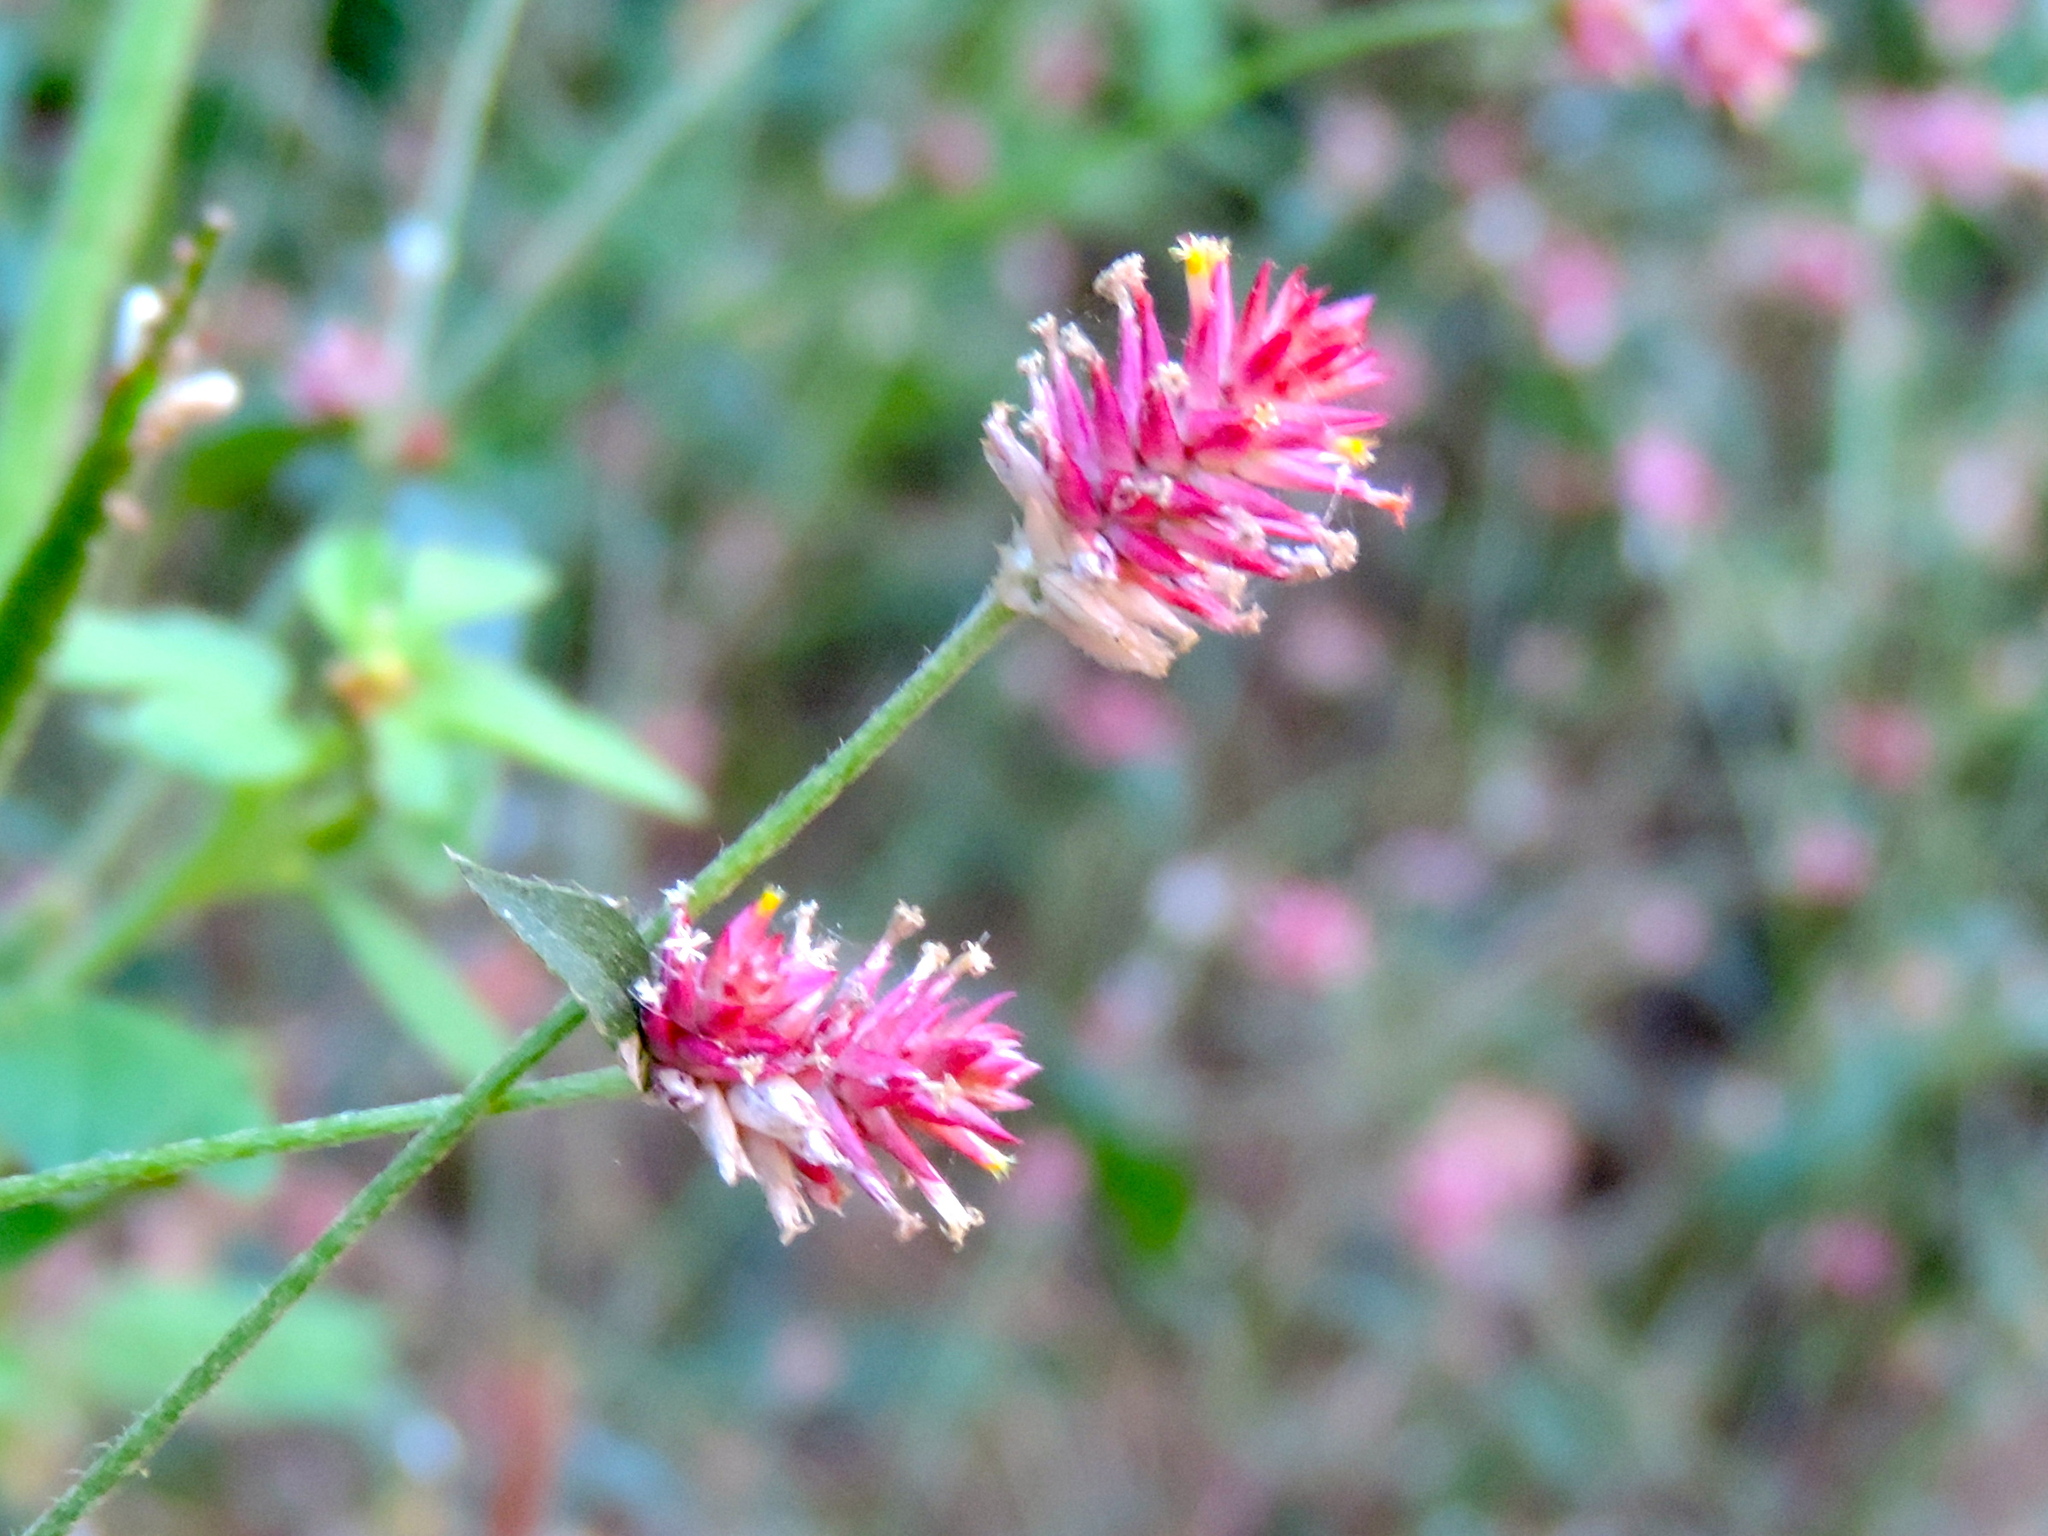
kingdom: Plantae
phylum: Tracheophyta
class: Magnoliopsida
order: Caryophyllales
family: Amaranthaceae
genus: Gomphrena
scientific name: Gomphrena
